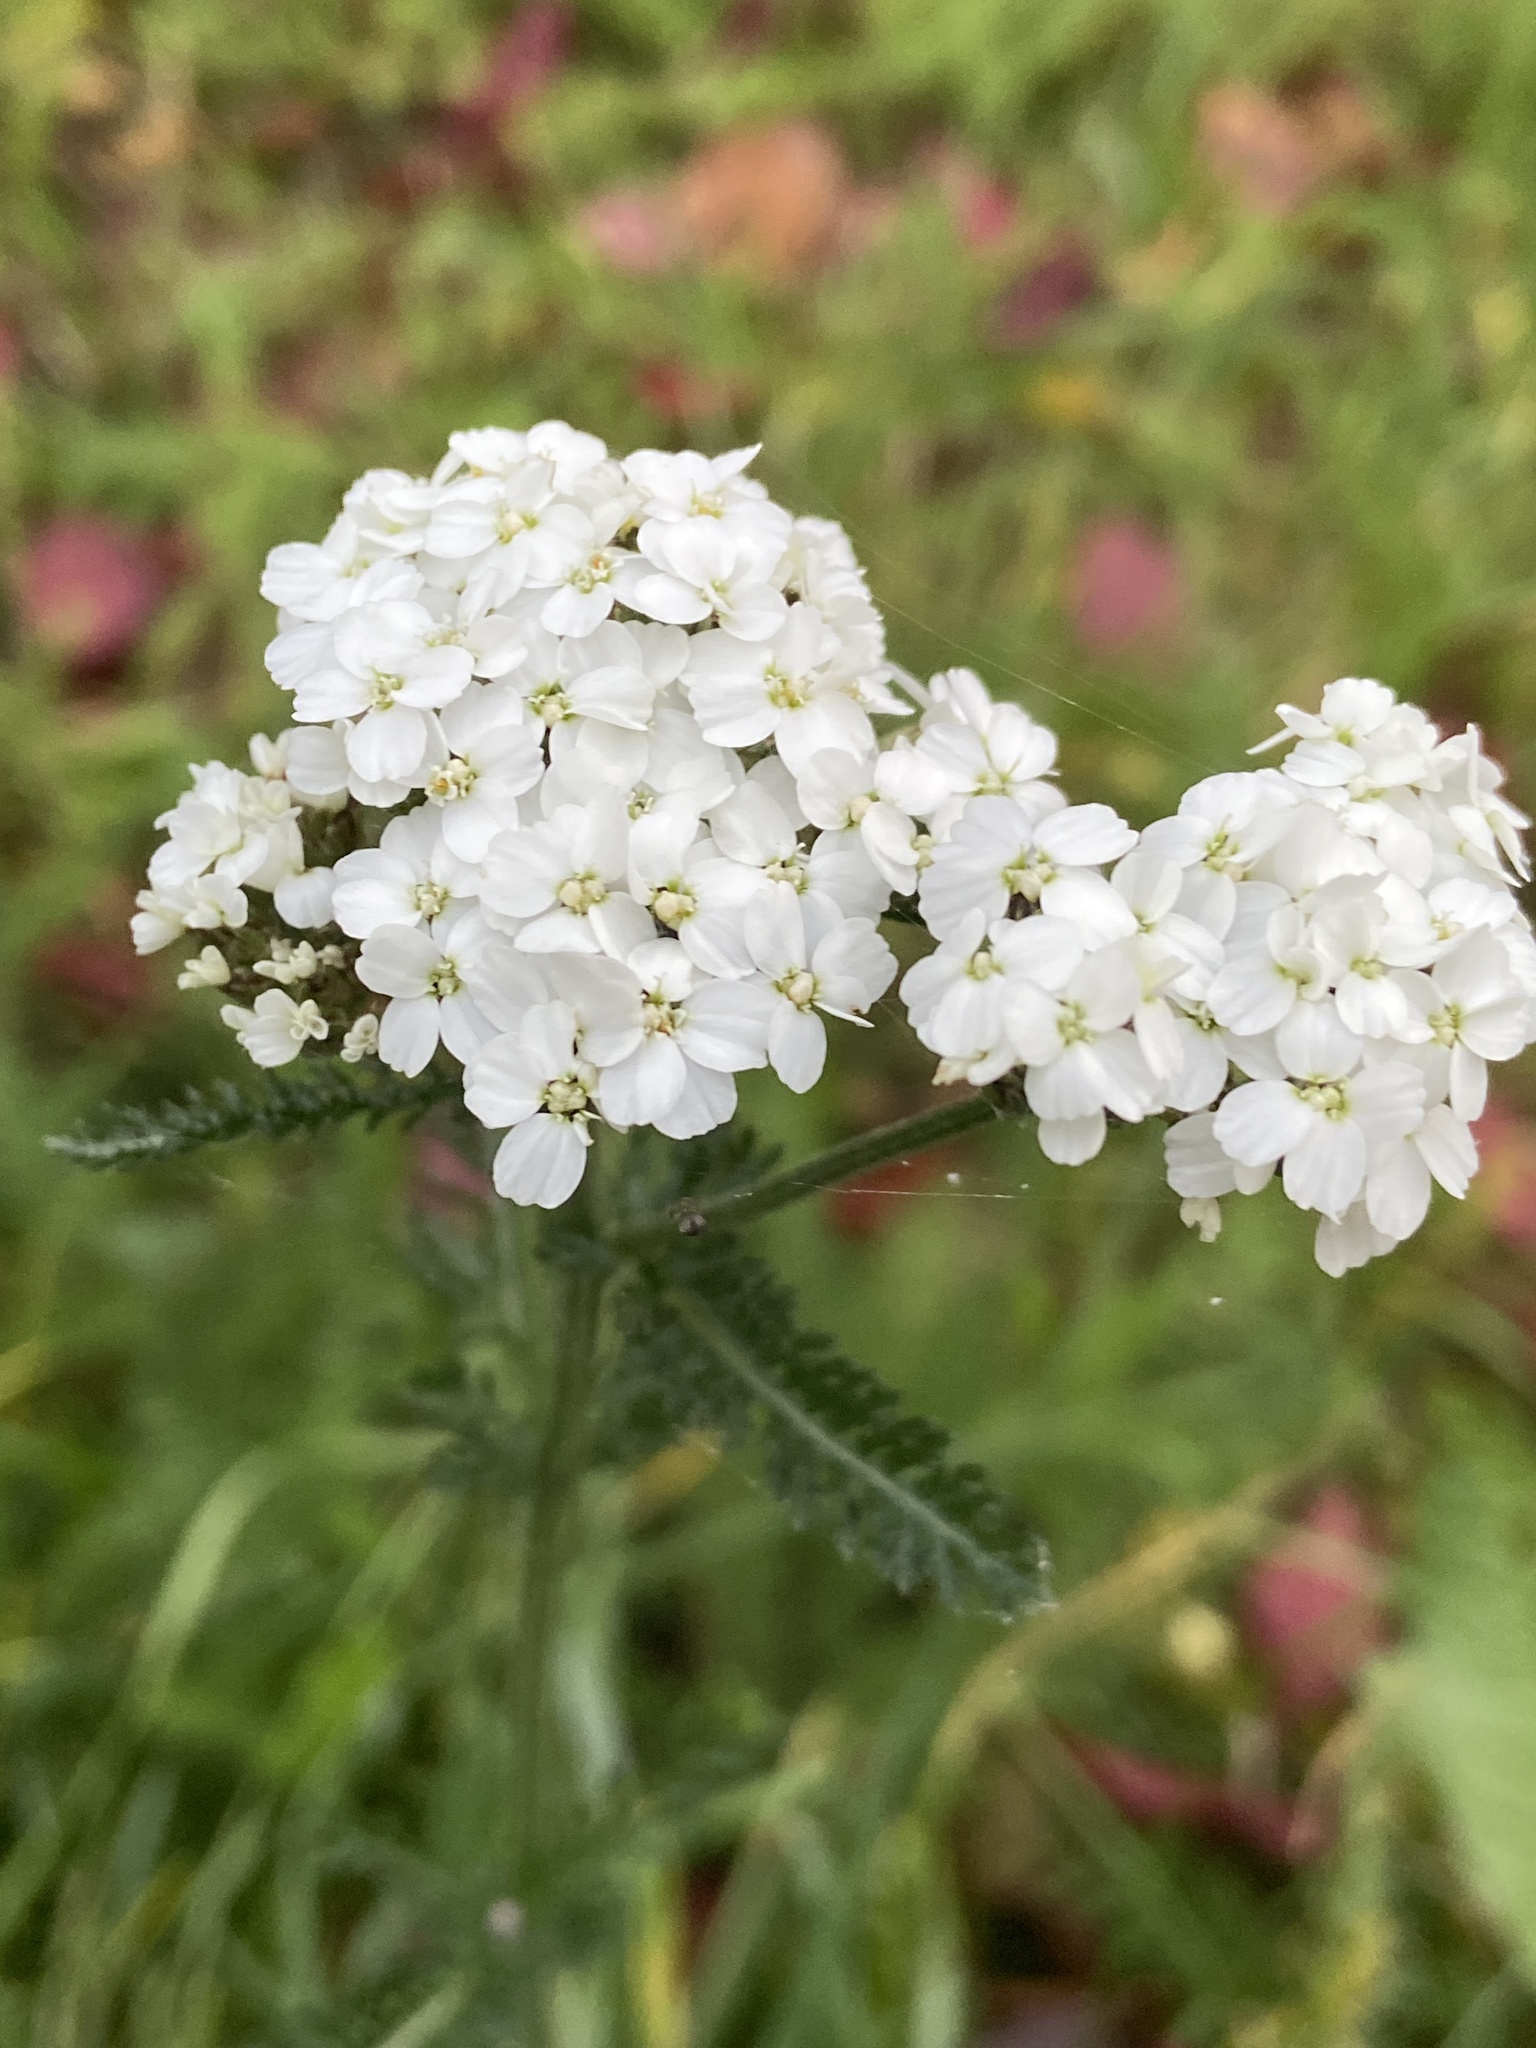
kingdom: Plantae
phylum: Tracheophyta
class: Magnoliopsida
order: Asterales
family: Asteraceae
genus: Achillea
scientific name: Achillea millefolium
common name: Yarrow
